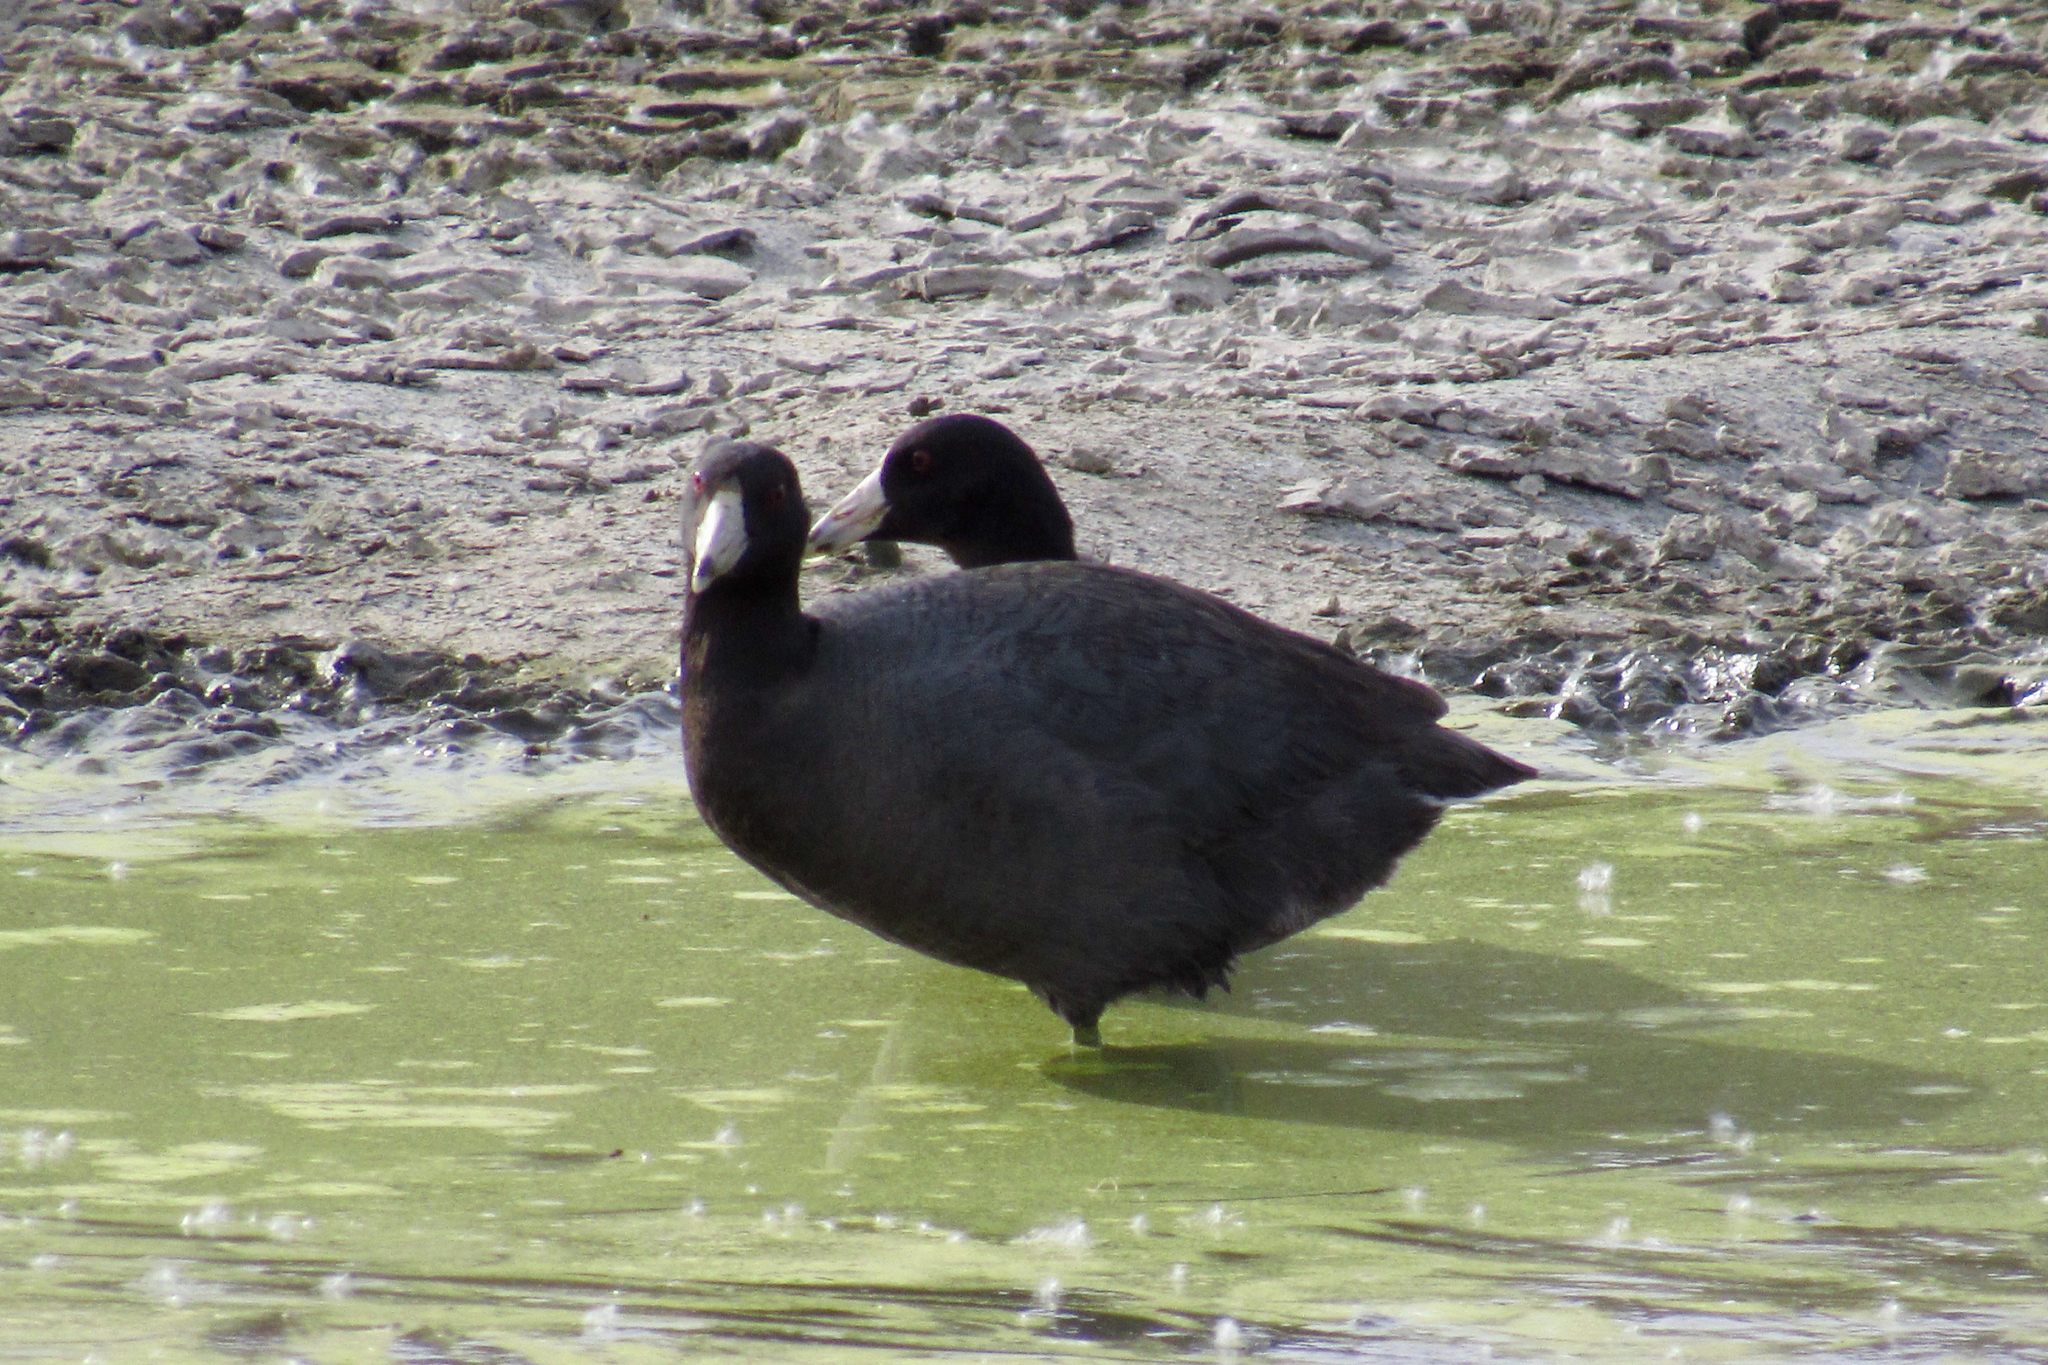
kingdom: Animalia
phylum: Chordata
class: Aves
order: Gruiformes
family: Rallidae
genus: Fulica
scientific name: Fulica americana
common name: American coot
